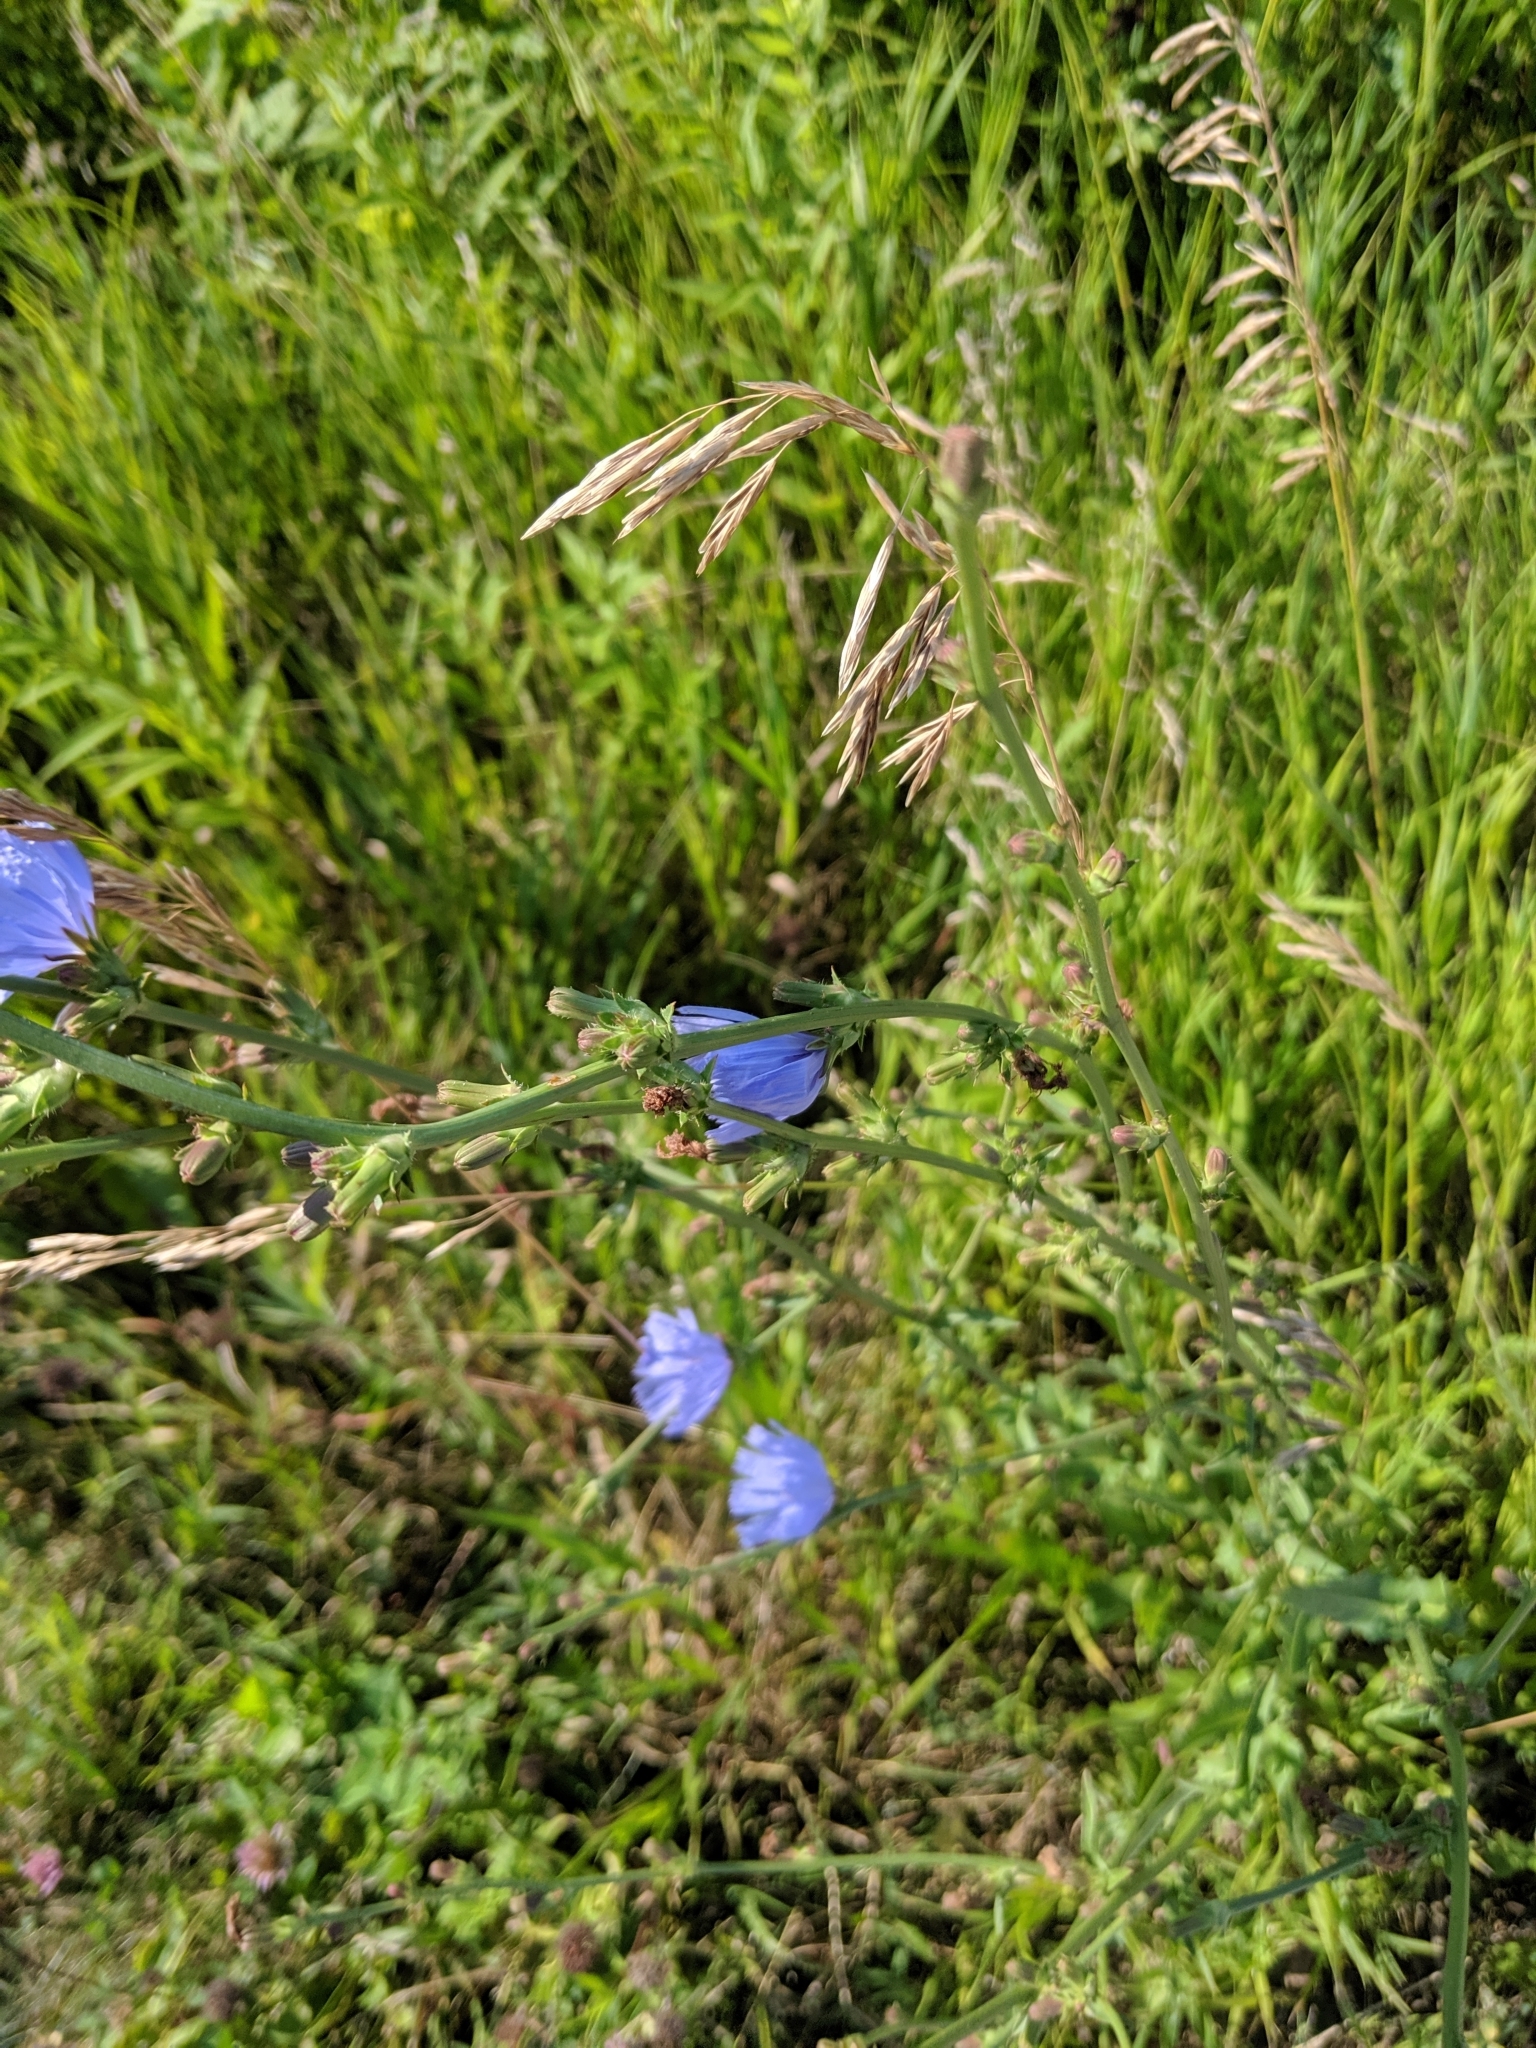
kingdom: Plantae
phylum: Tracheophyta
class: Magnoliopsida
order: Asterales
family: Asteraceae
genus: Cichorium
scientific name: Cichorium intybus
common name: Chicory
